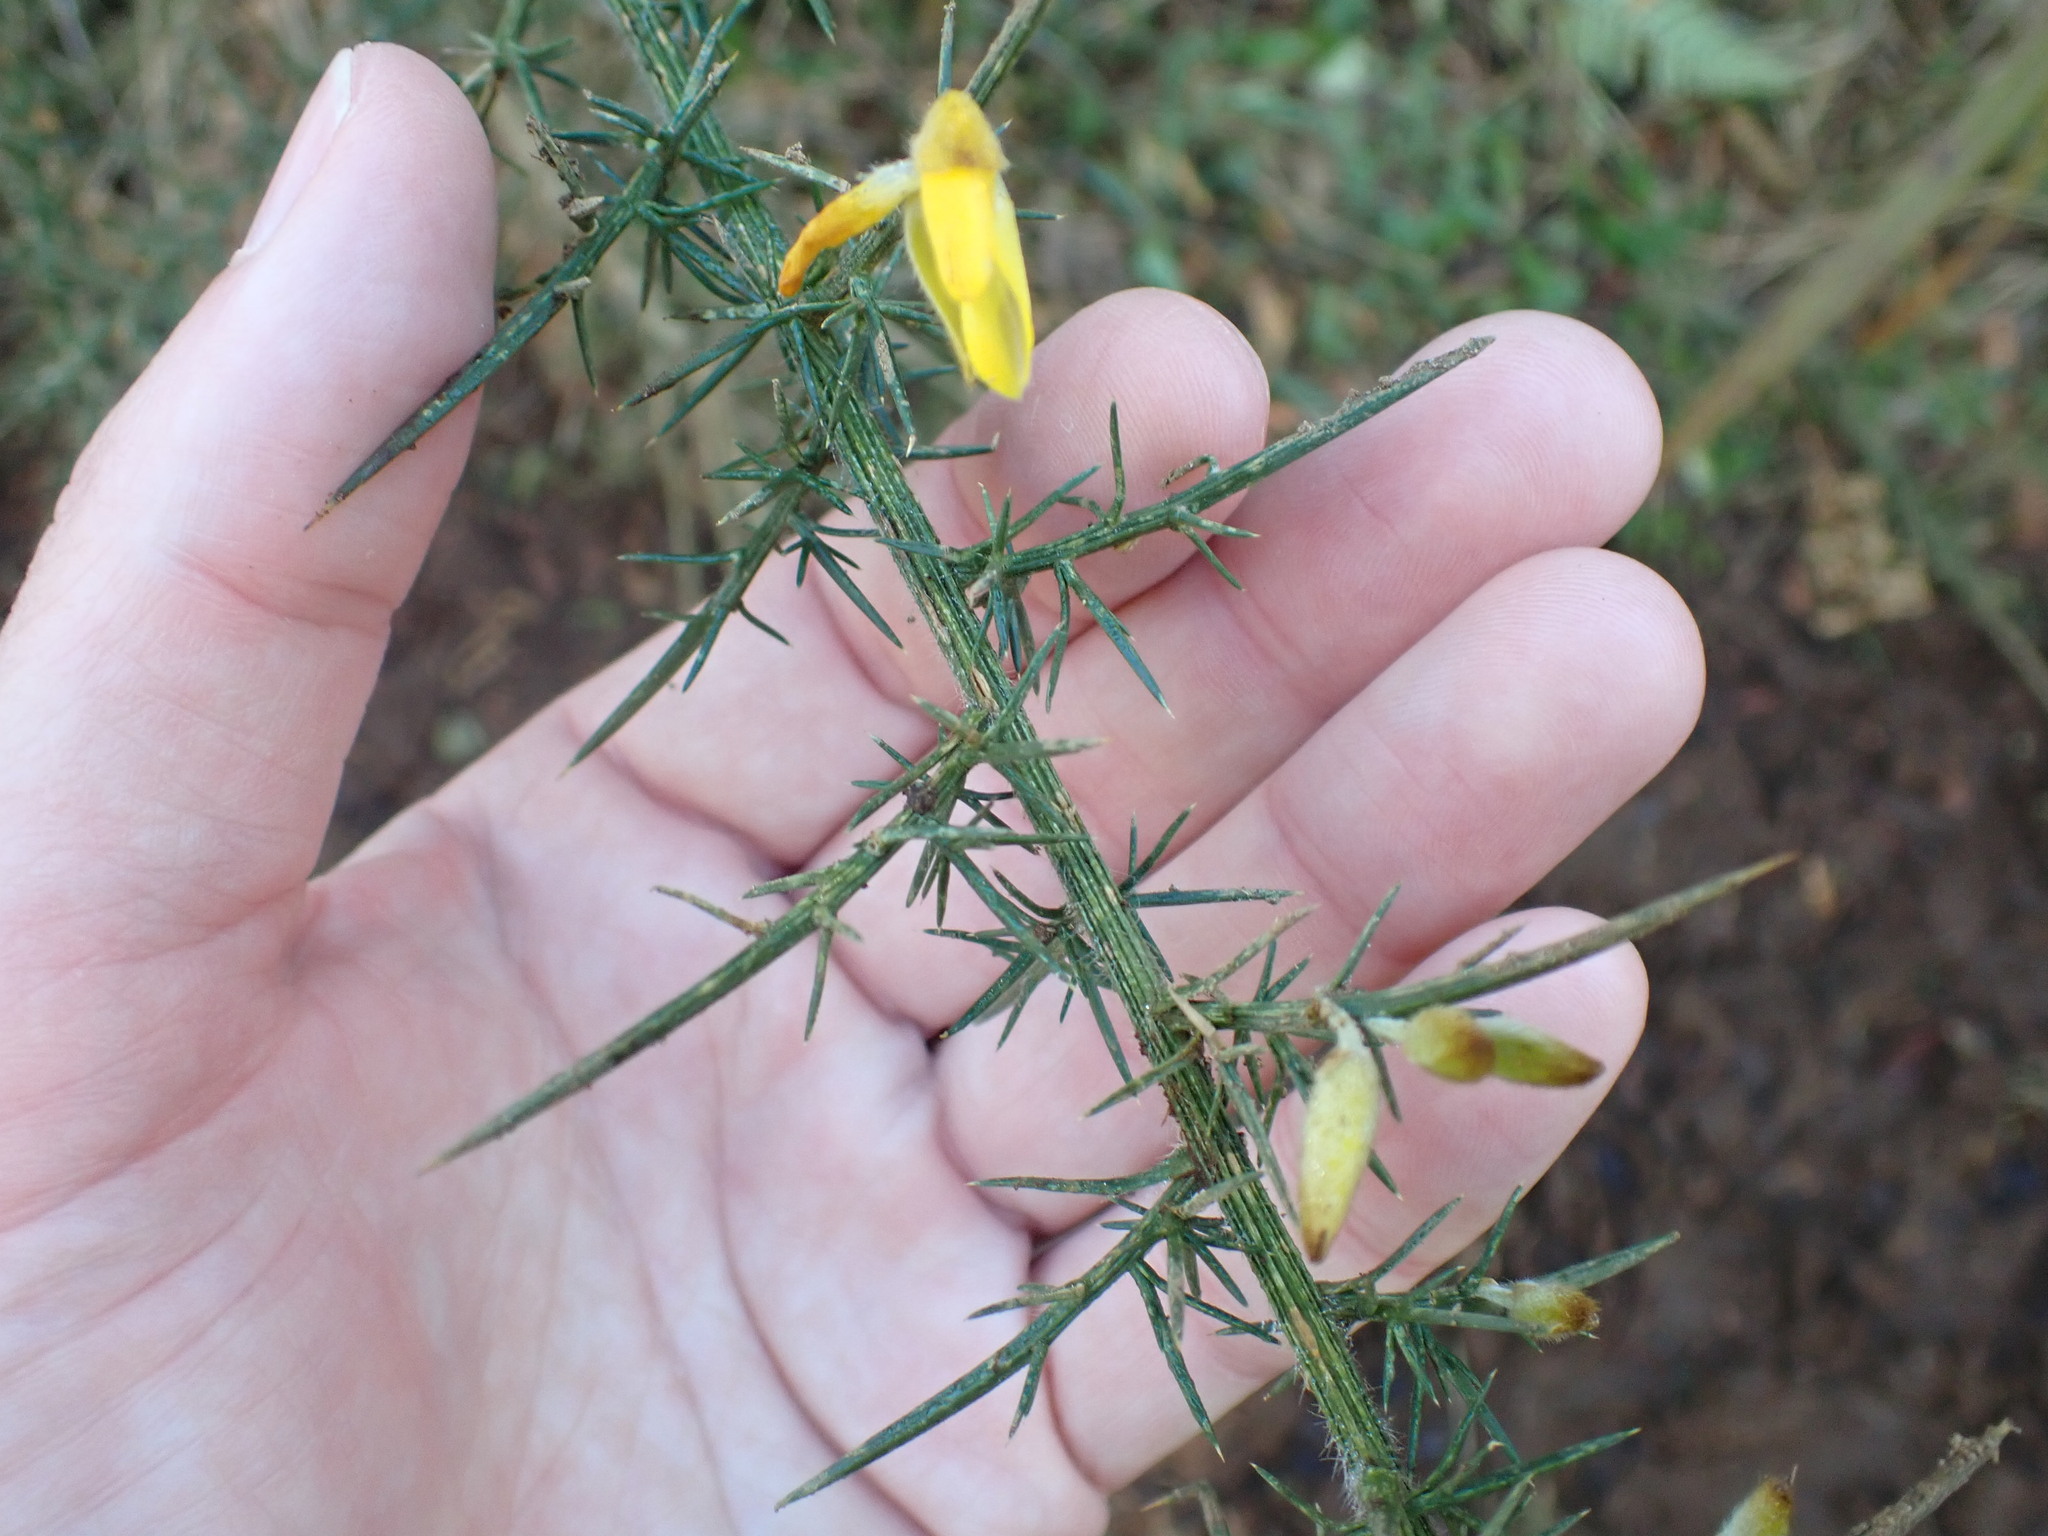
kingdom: Plantae
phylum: Tracheophyta
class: Magnoliopsida
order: Fabales
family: Fabaceae
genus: Ulex
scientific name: Ulex europaeus
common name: Common gorse
